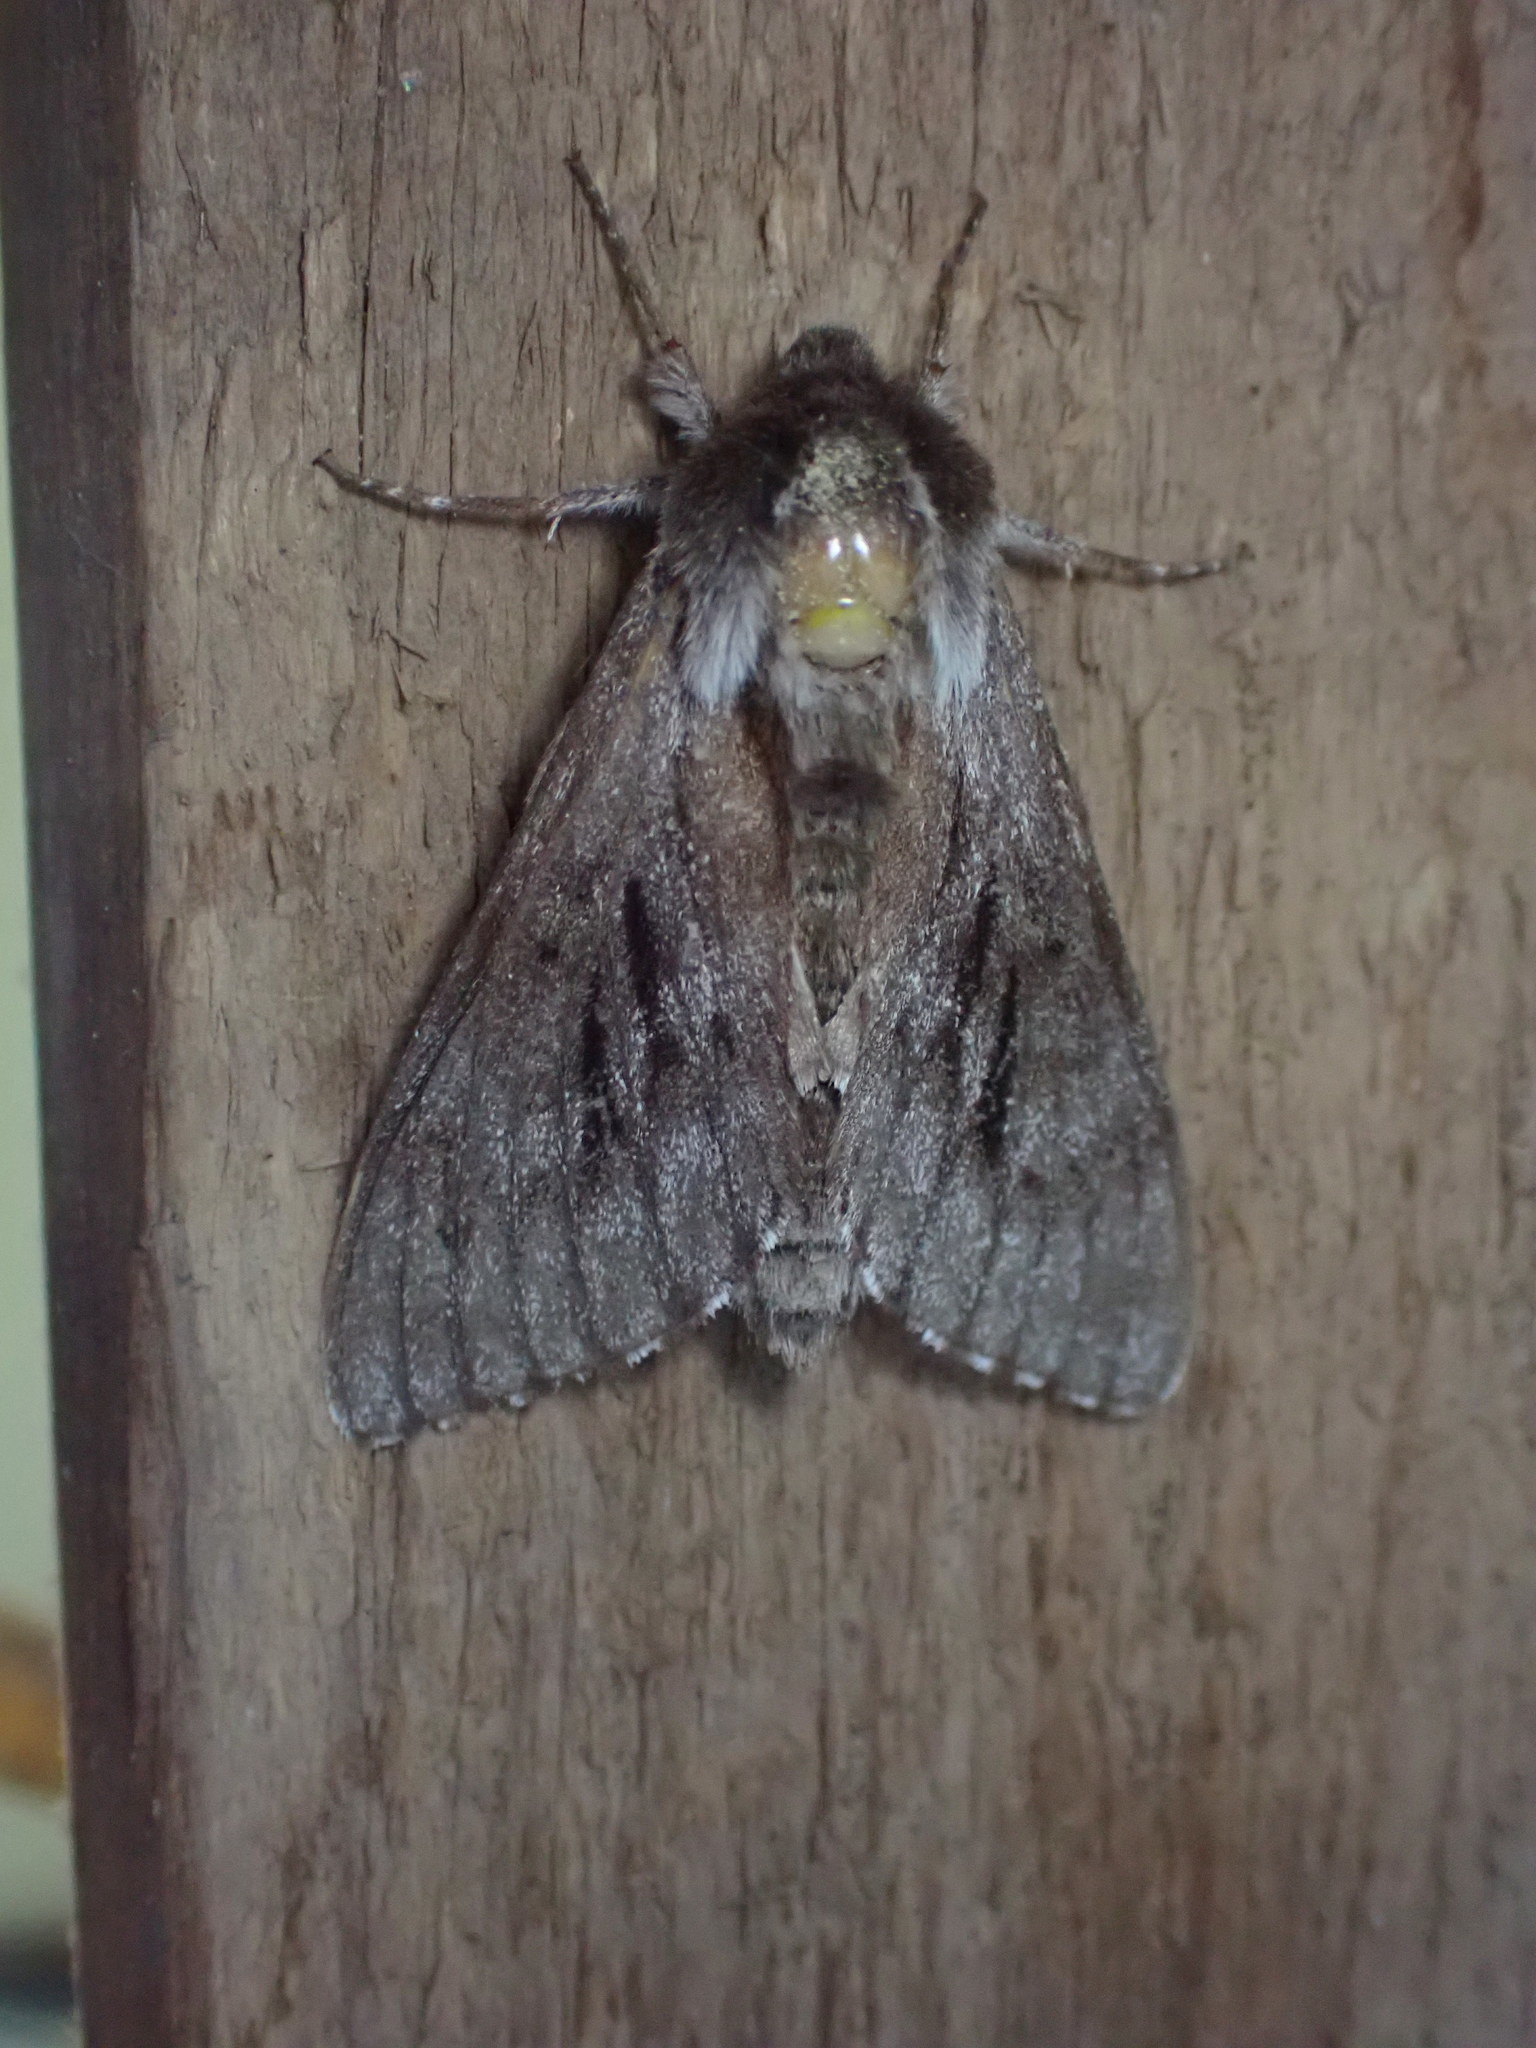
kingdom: Animalia
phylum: Arthropoda
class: Insecta
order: Lepidoptera
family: Sphingidae
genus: Lapara
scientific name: Lapara bombycoides
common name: Northern pine sphinx
